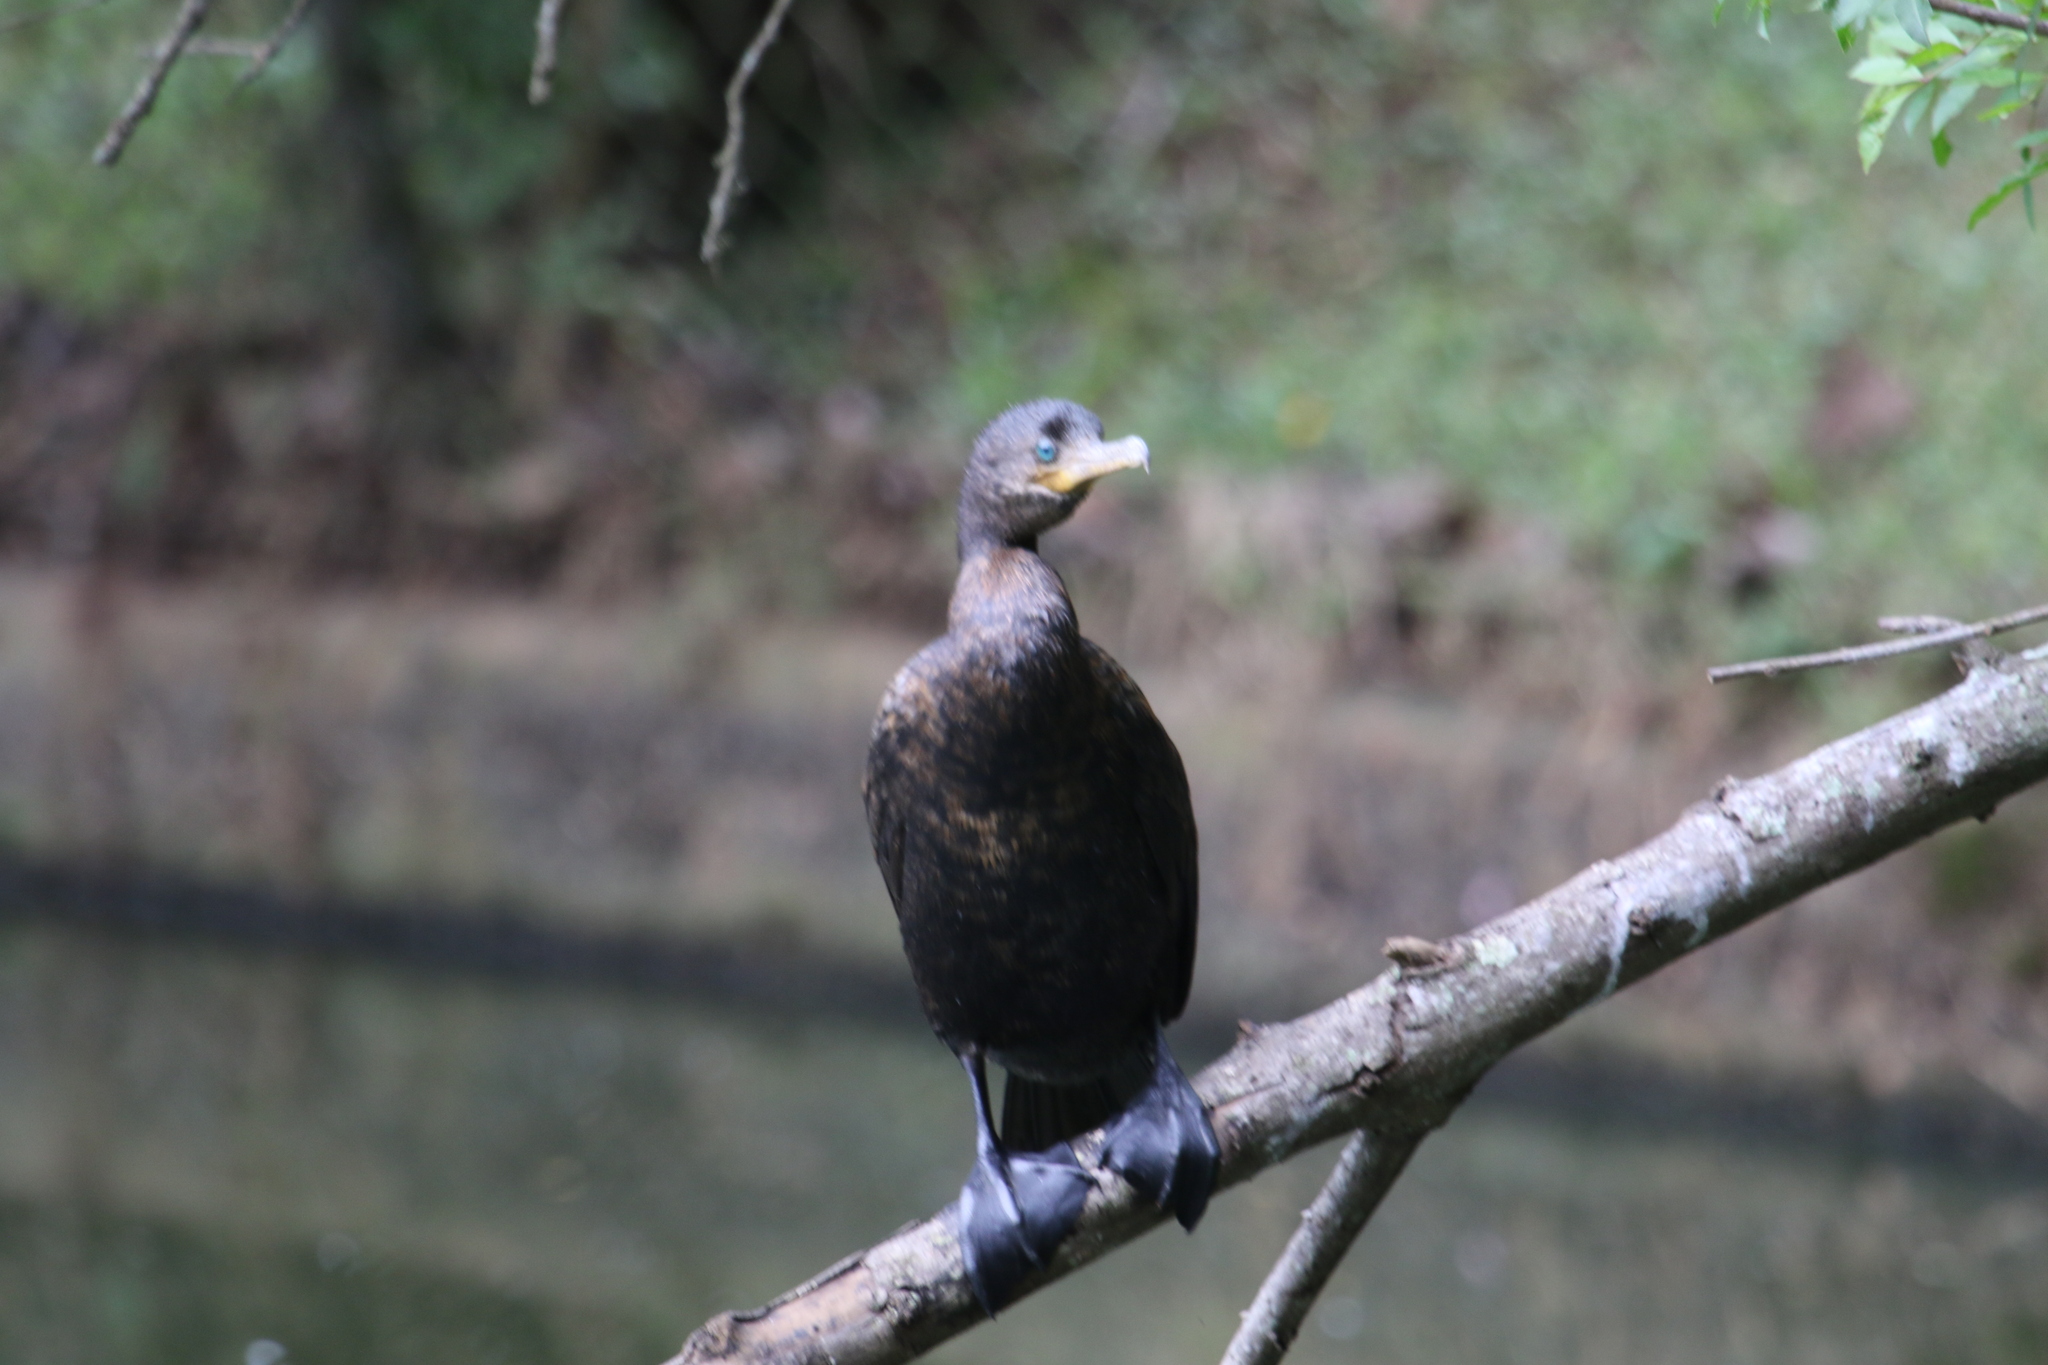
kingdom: Animalia
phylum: Chordata
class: Aves
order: Suliformes
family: Phalacrocoracidae
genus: Phalacrocorax
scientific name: Phalacrocorax brasilianus
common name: Neotropic cormorant
